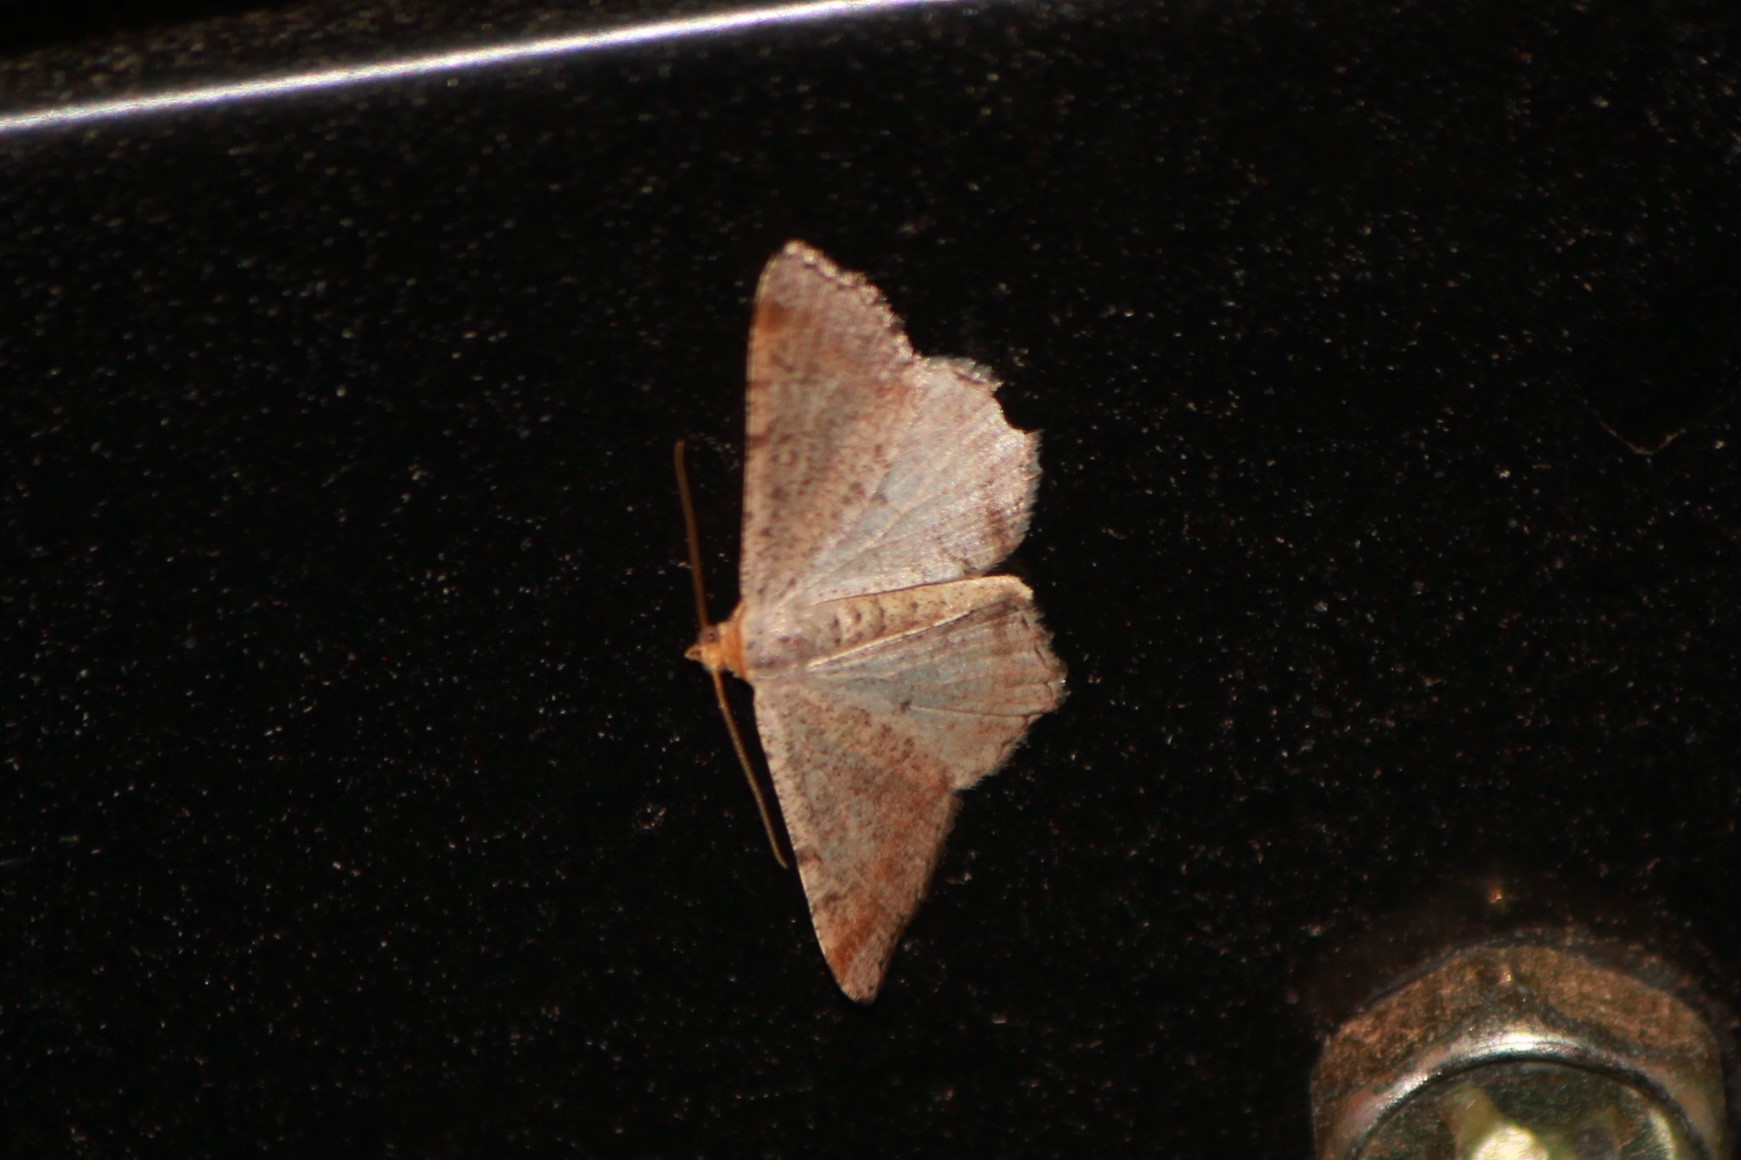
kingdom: Animalia
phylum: Arthropoda
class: Insecta
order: Lepidoptera
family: Geometridae
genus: Macaria
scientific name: Macaria minorata
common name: Minor angle moth
